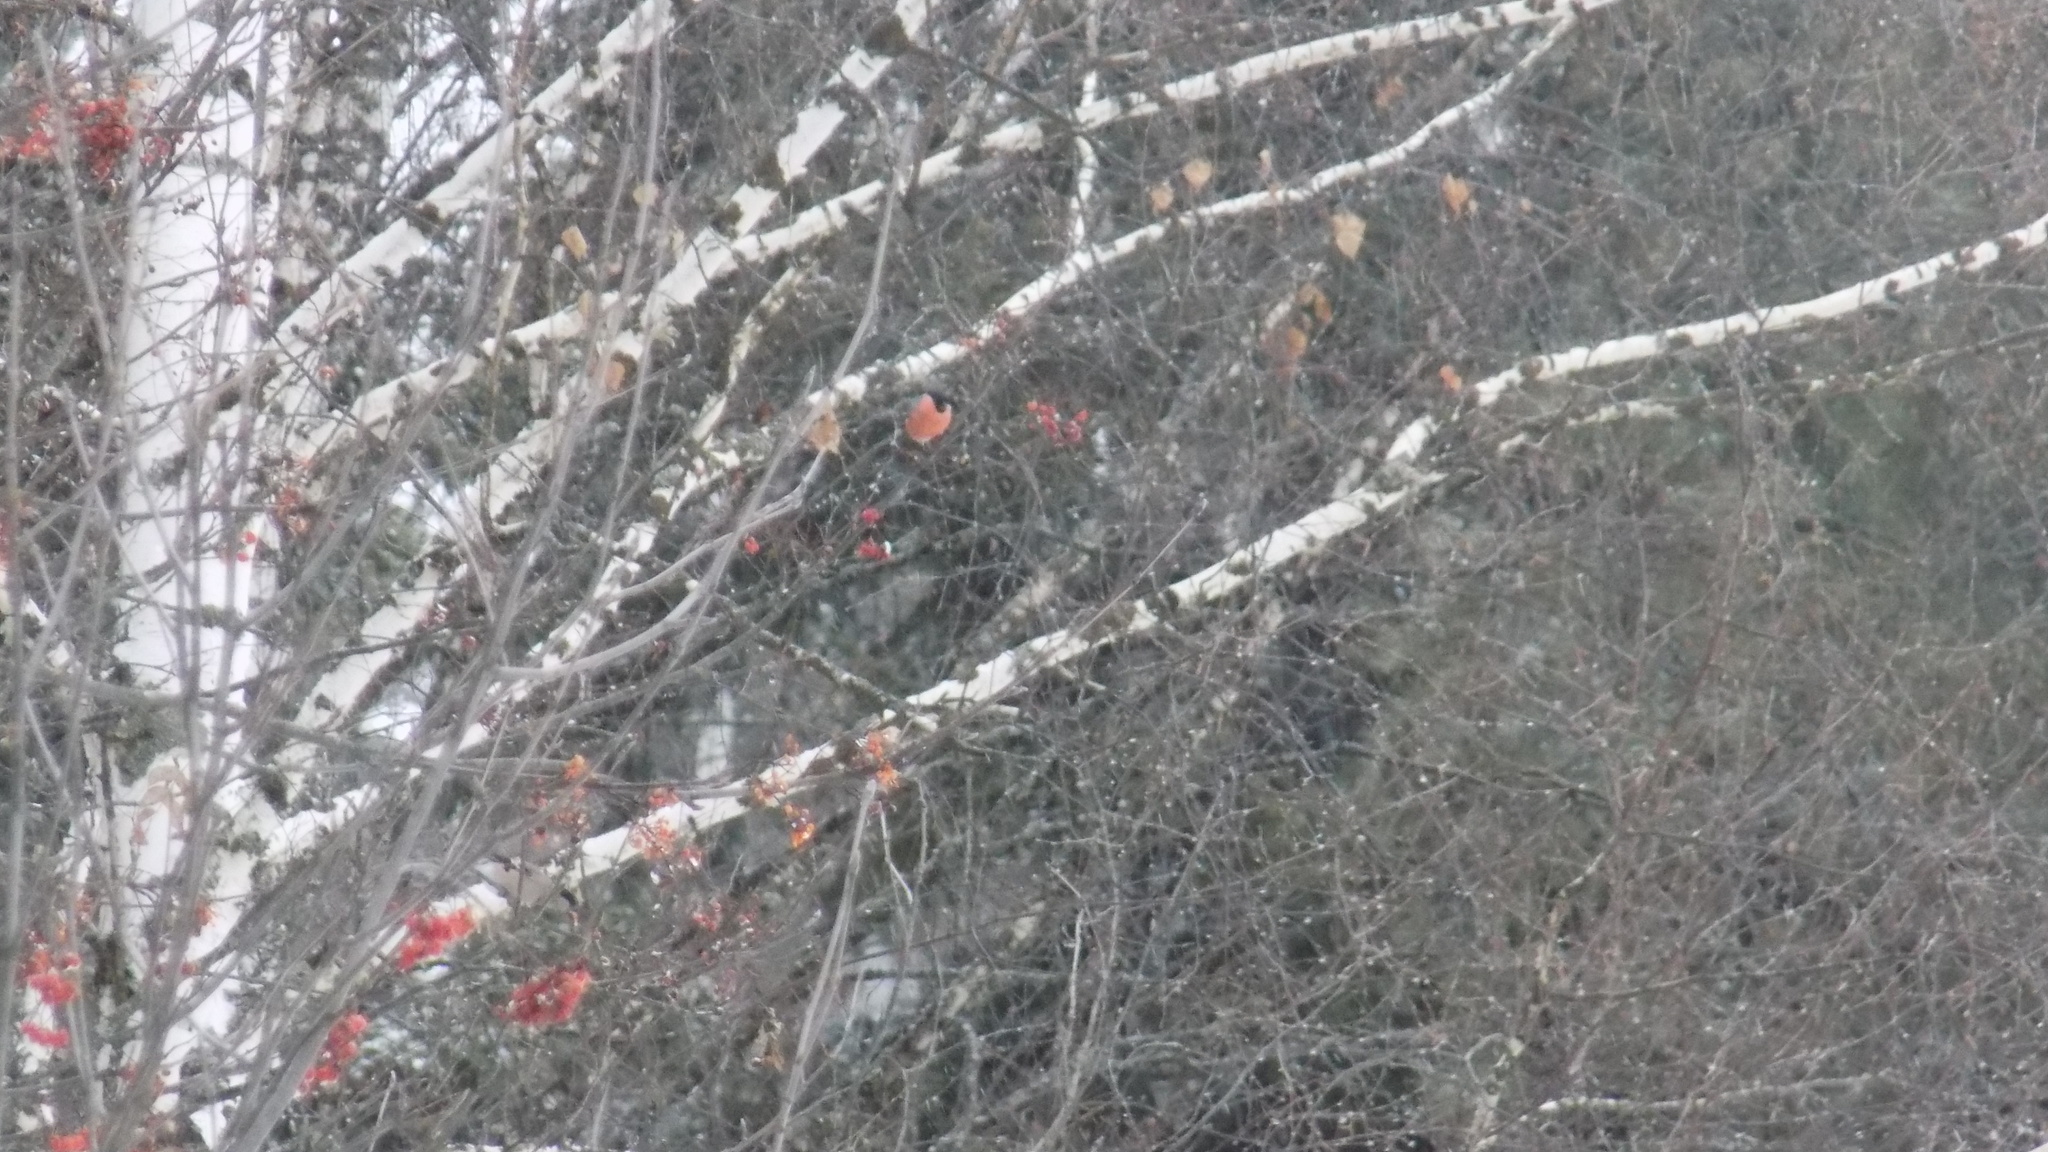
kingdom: Animalia
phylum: Chordata
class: Aves
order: Passeriformes
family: Fringillidae
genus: Pyrrhula
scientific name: Pyrrhula pyrrhula
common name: Eurasian bullfinch
